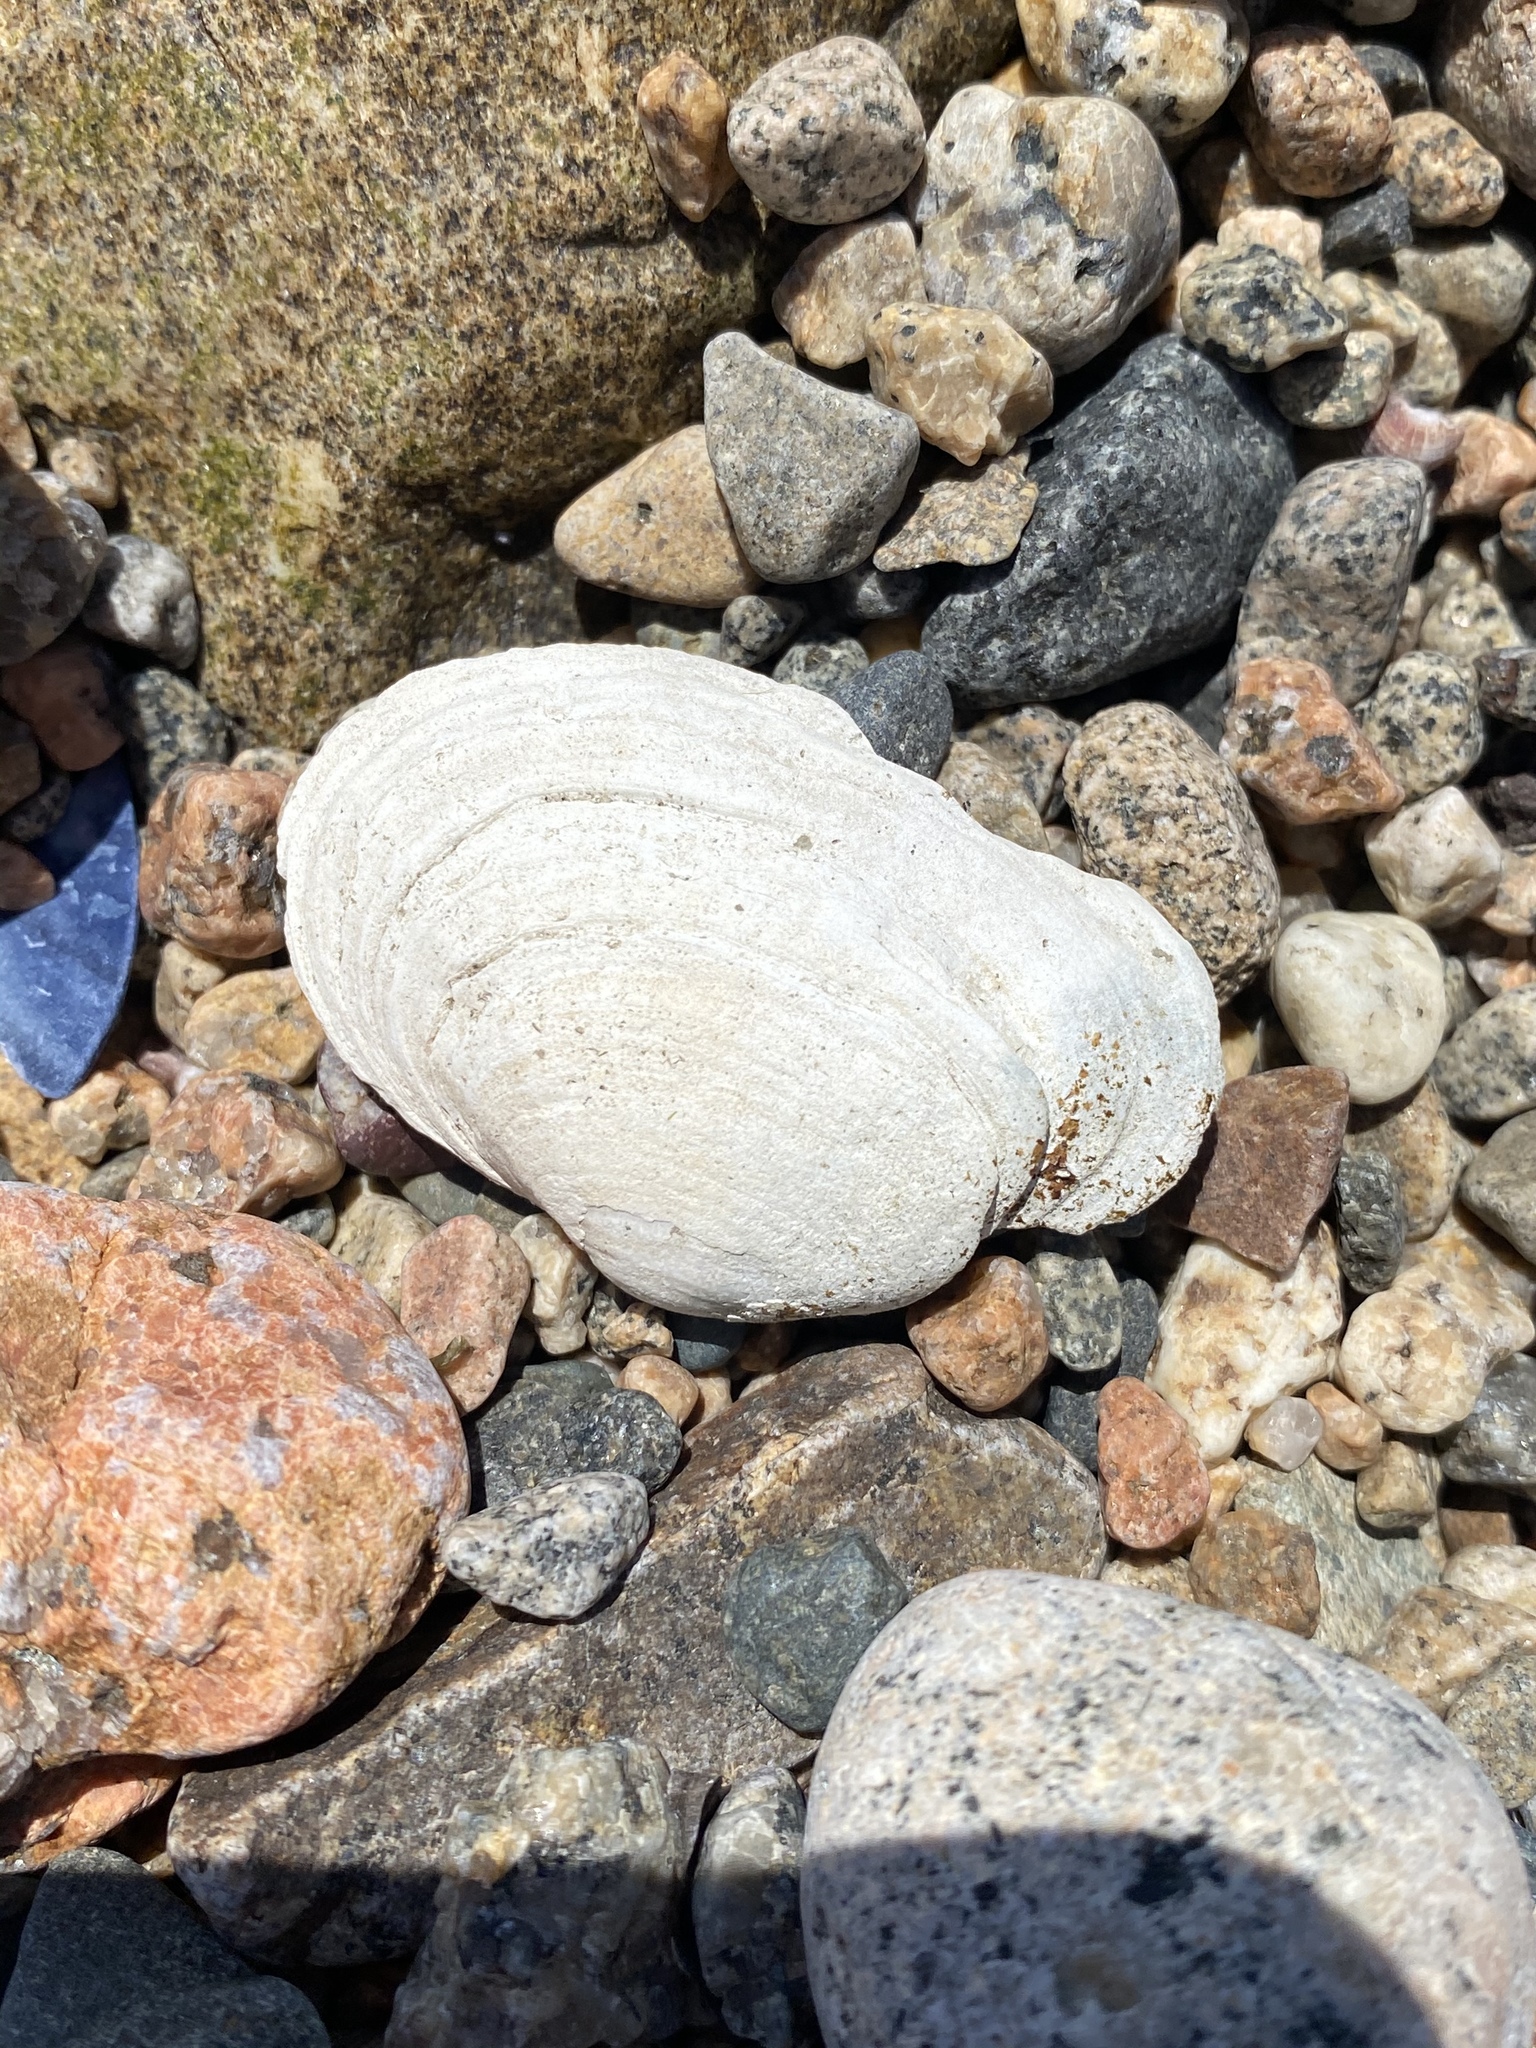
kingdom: Animalia
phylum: Mollusca
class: Bivalvia
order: Myida
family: Myidae
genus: Mya
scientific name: Mya arenaria
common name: Soft-shelled clam
